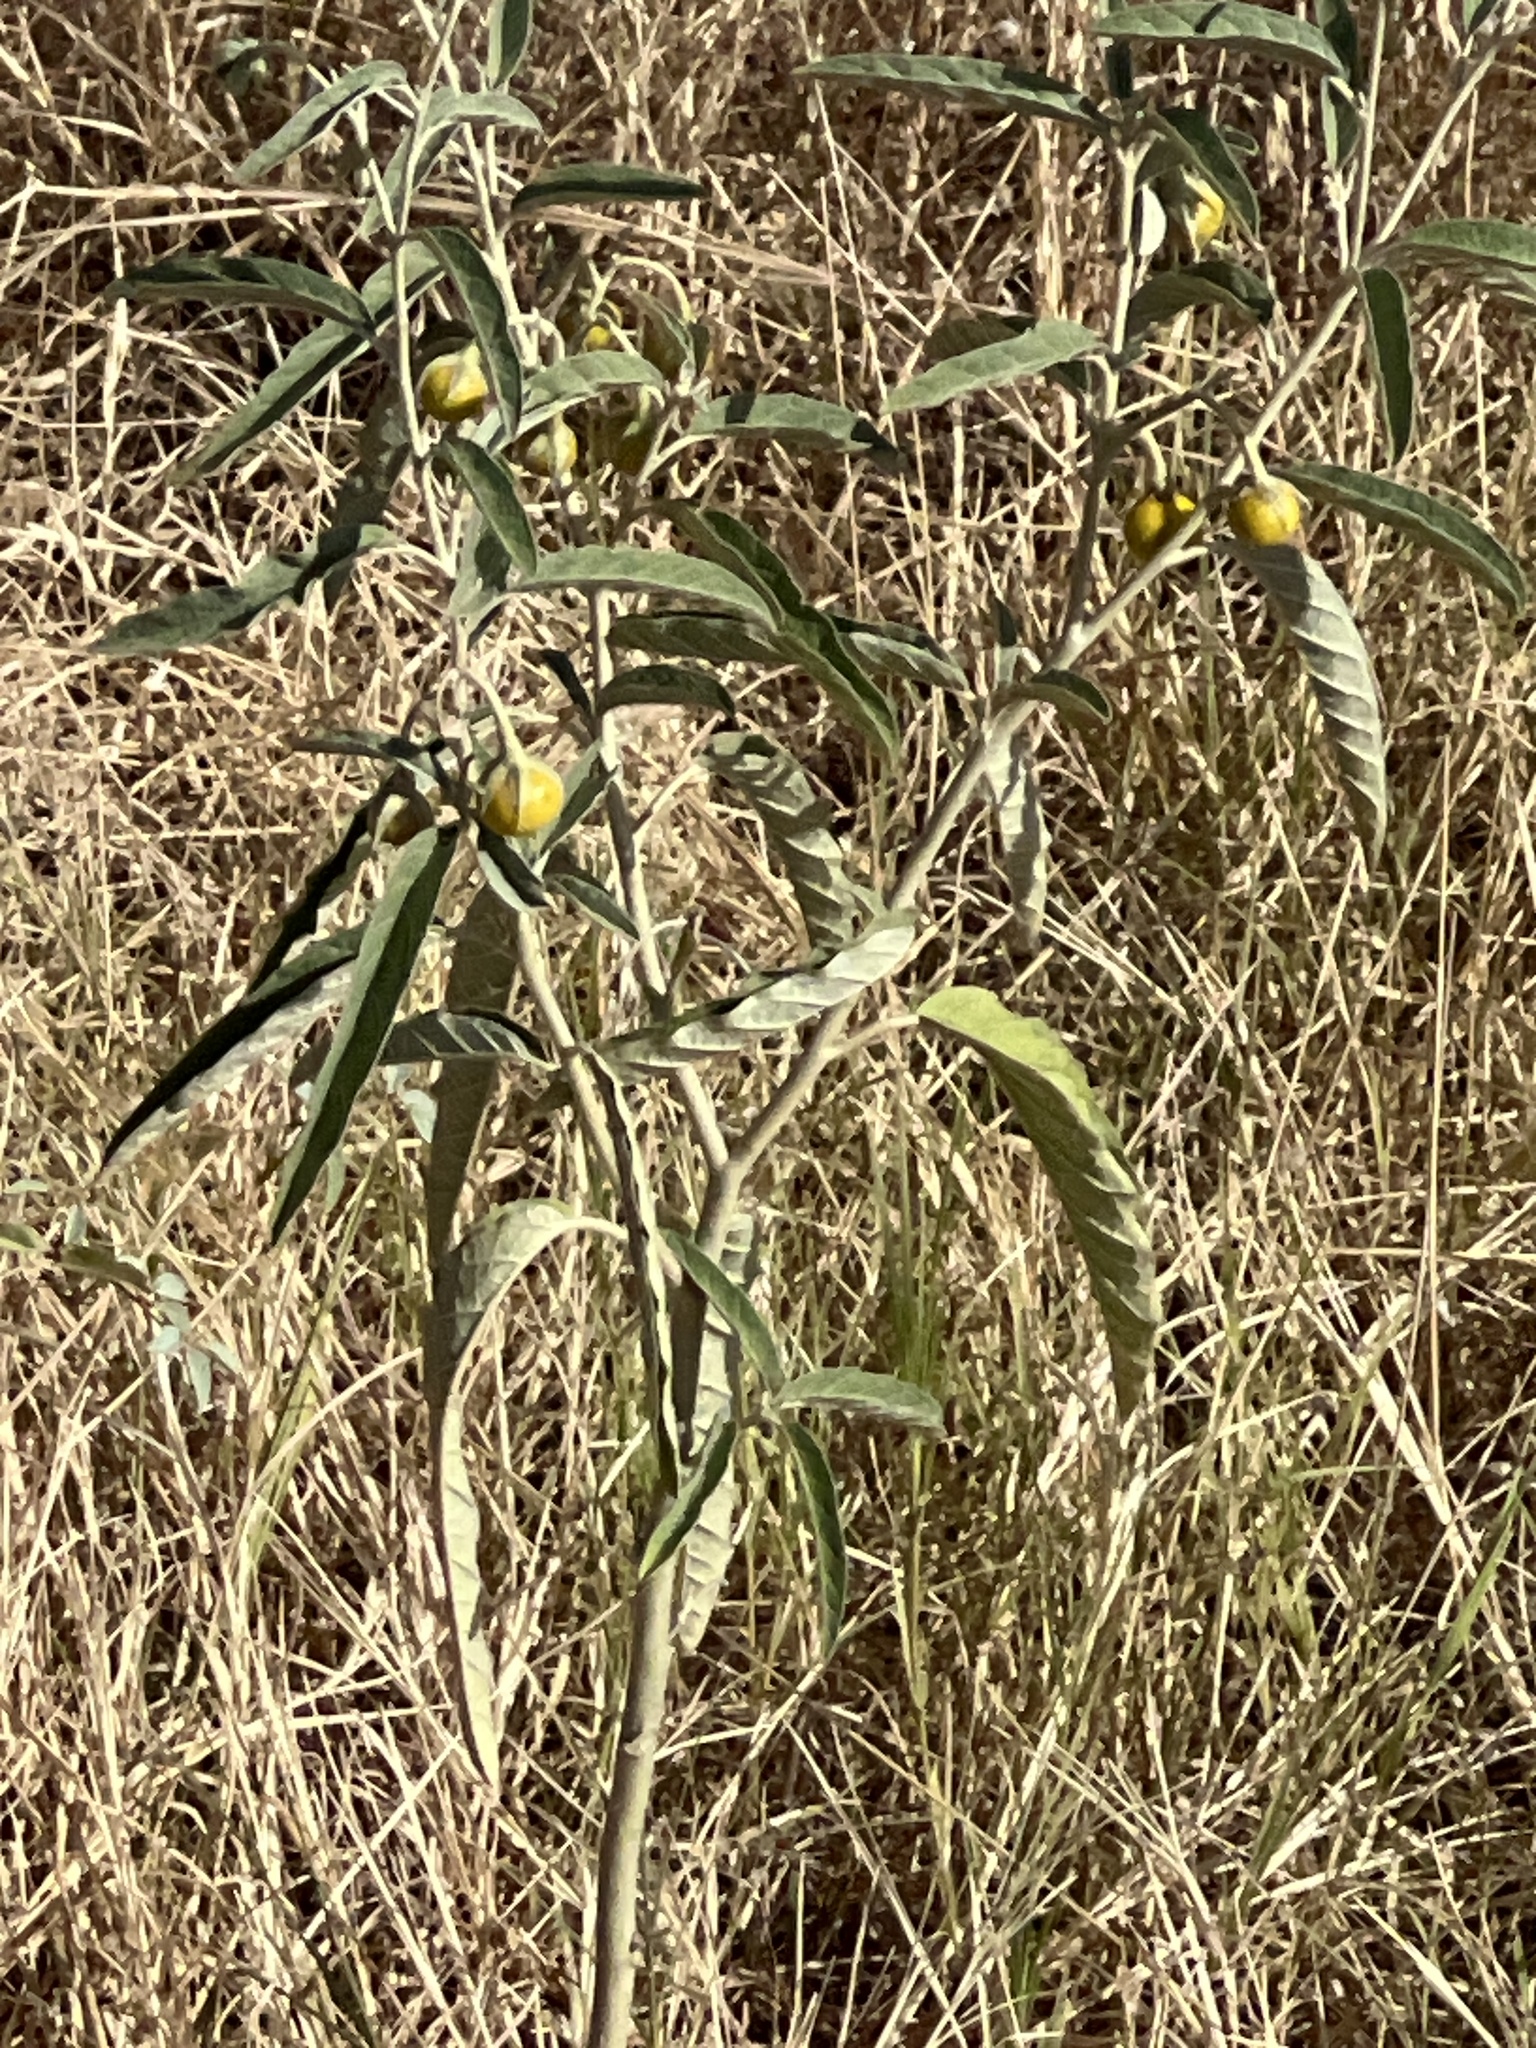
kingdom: Plantae
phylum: Tracheophyta
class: Magnoliopsida
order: Solanales
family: Solanaceae
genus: Solanum
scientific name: Solanum elaeagnifolium
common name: Silverleaf nightshade
